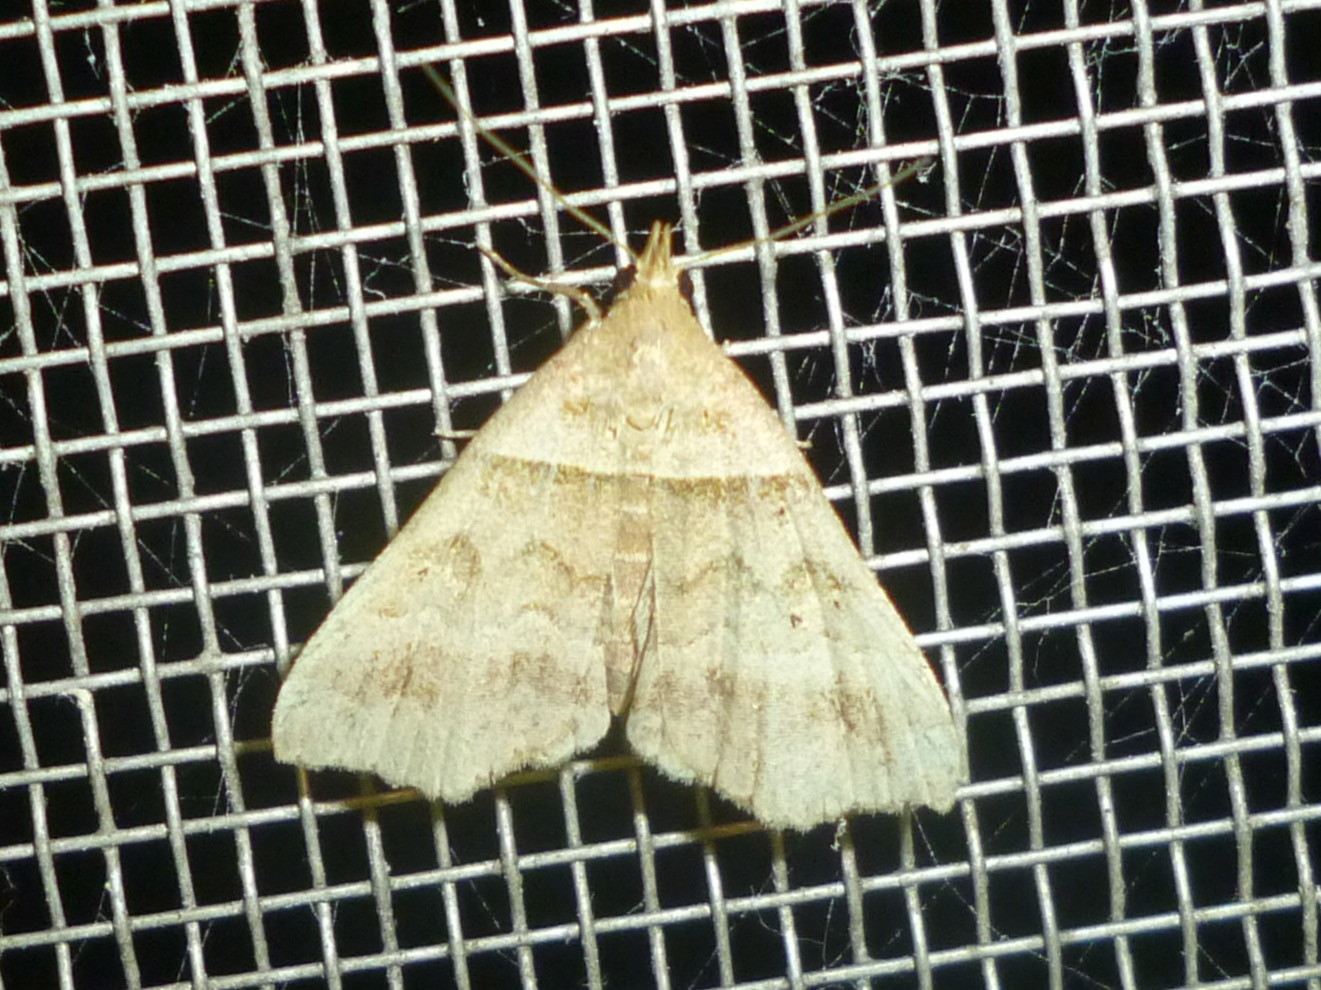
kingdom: Animalia
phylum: Arthropoda
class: Insecta
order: Lepidoptera
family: Erebidae
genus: Phaeolita
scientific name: Phaeolita pyramusalis
